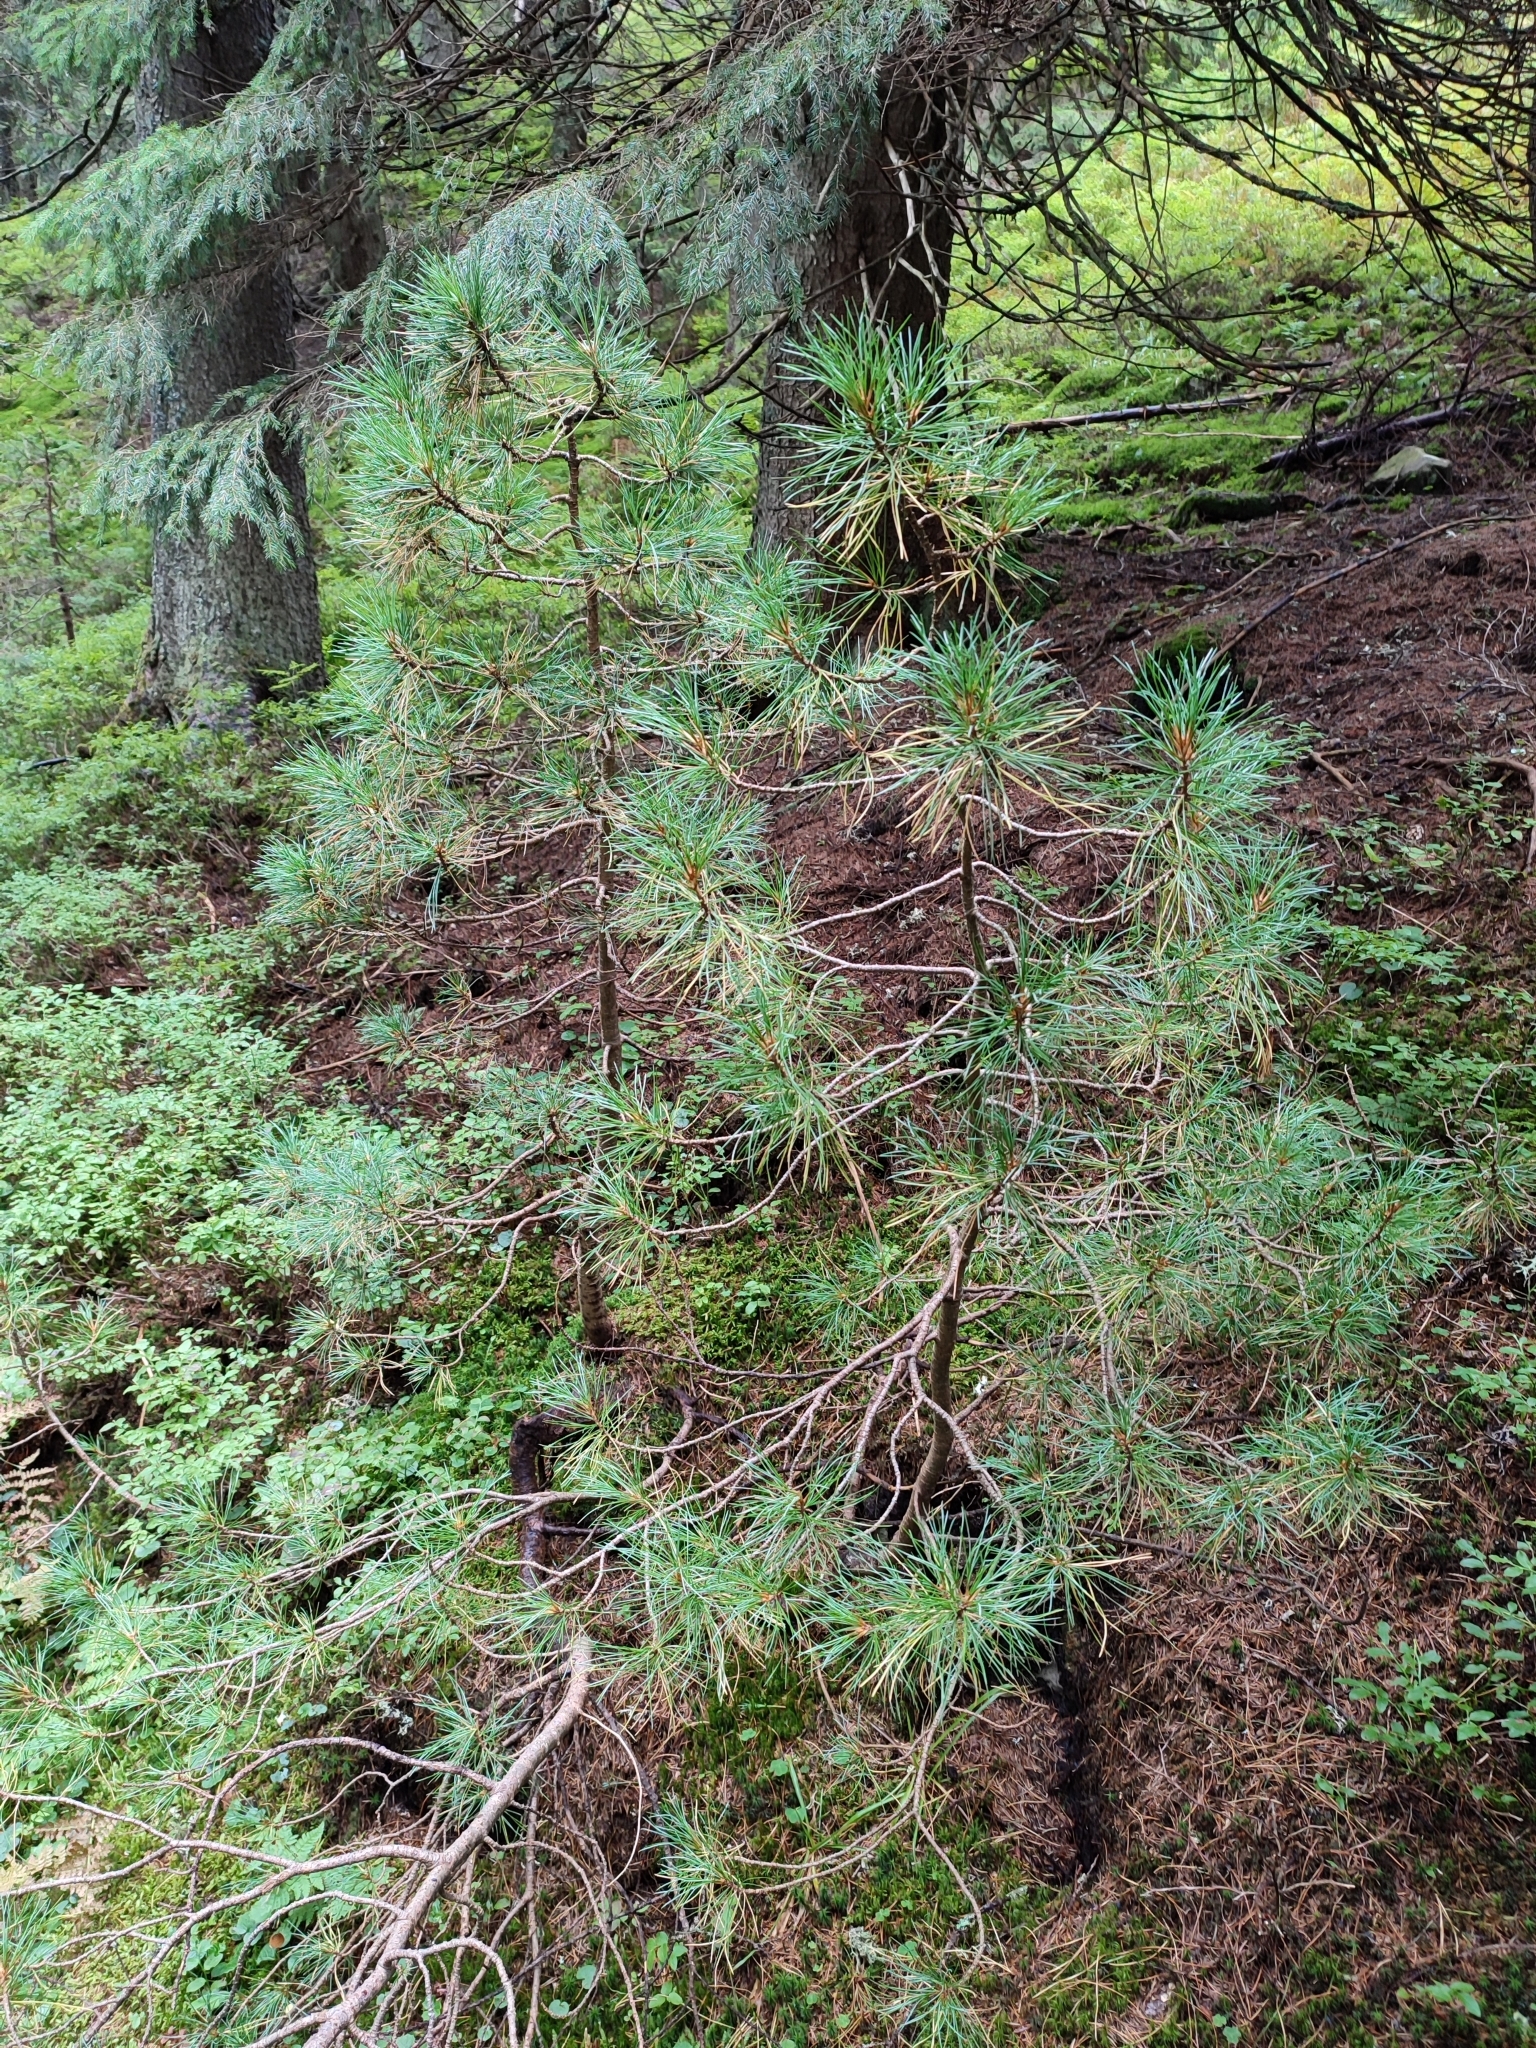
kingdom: Plantae
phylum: Tracheophyta
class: Pinopsida
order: Pinales
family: Pinaceae
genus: Pinus
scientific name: Pinus cembra
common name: Arolla pine
